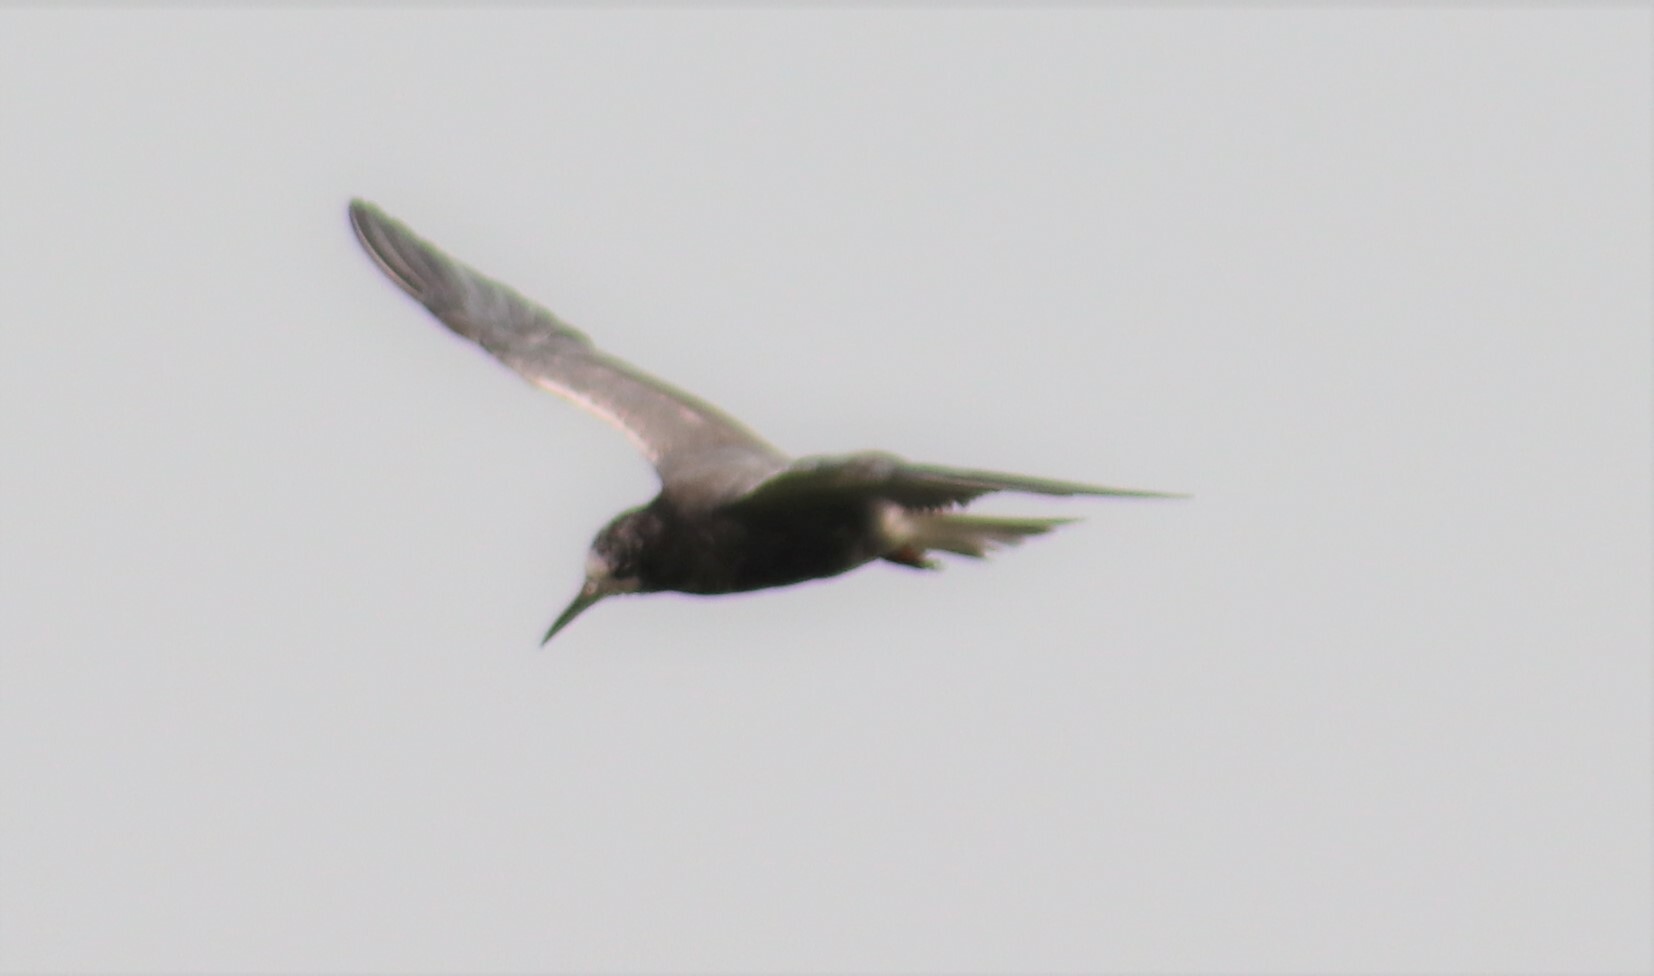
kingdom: Animalia
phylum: Chordata
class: Aves
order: Charadriiformes
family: Laridae
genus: Chlidonias
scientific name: Chlidonias niger
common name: Black tern
